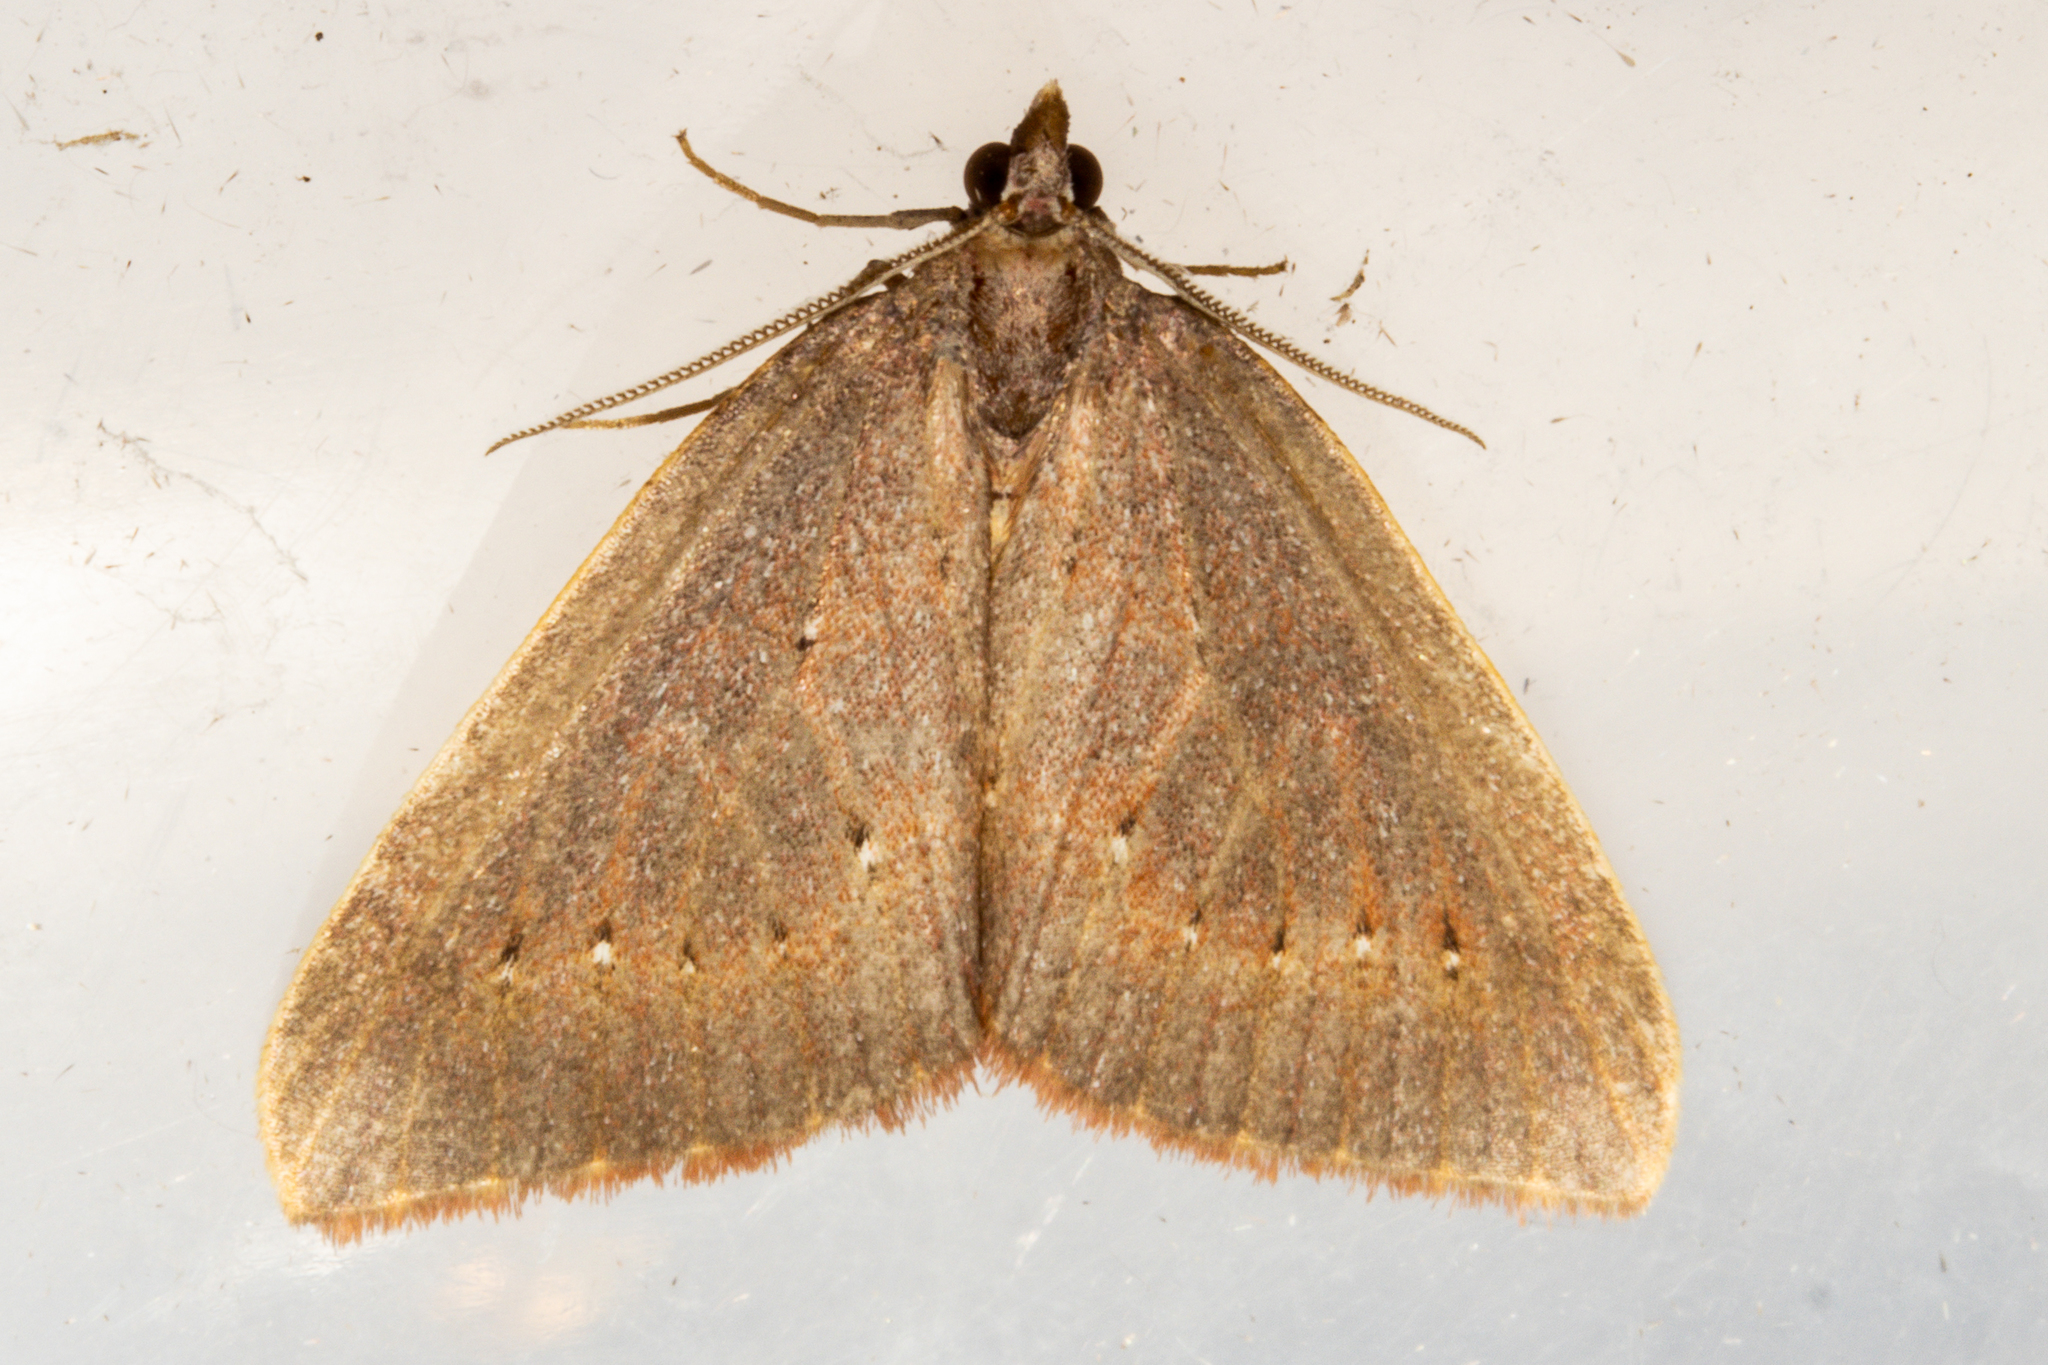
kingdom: Animalia
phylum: Arthropoda
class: Insecta
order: Lepidoptera
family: Geometridae
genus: Xanthorhoe
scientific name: Xanthorhoe occulta
